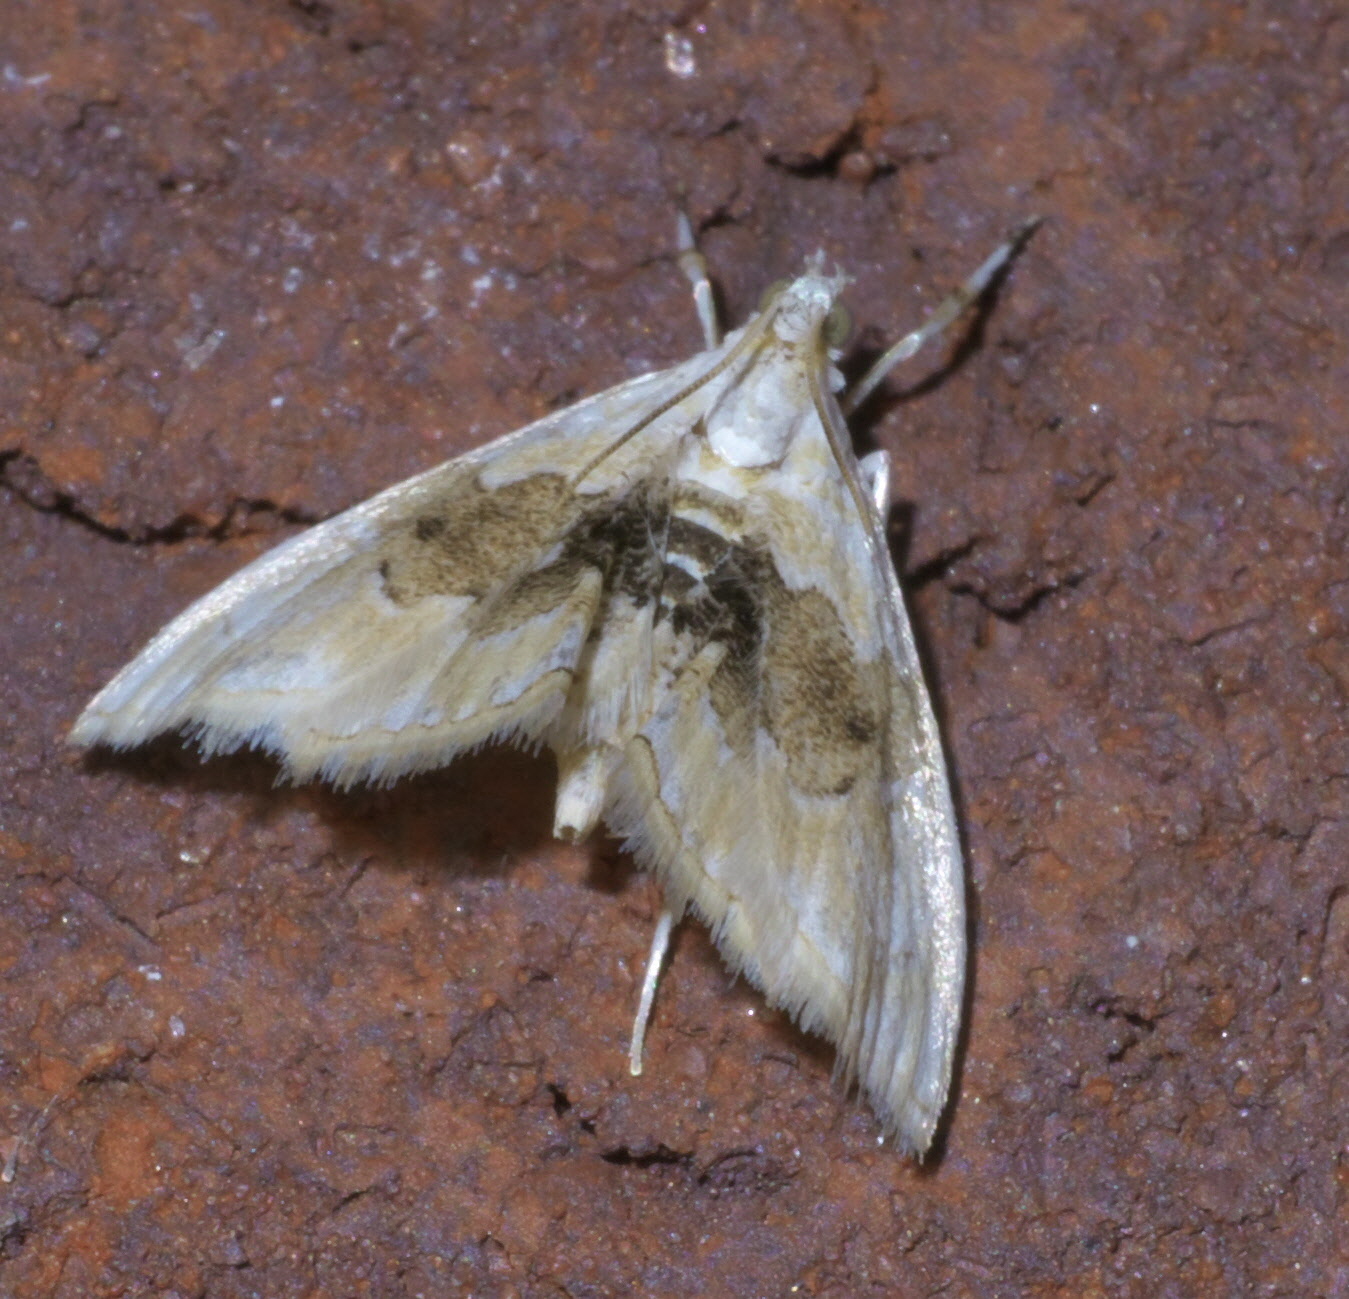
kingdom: Animalia
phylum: Arthropoda
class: Insecta
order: Lepidoptera
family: Crambidae
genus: Lipocosma
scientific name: Lipocosma sicalis
